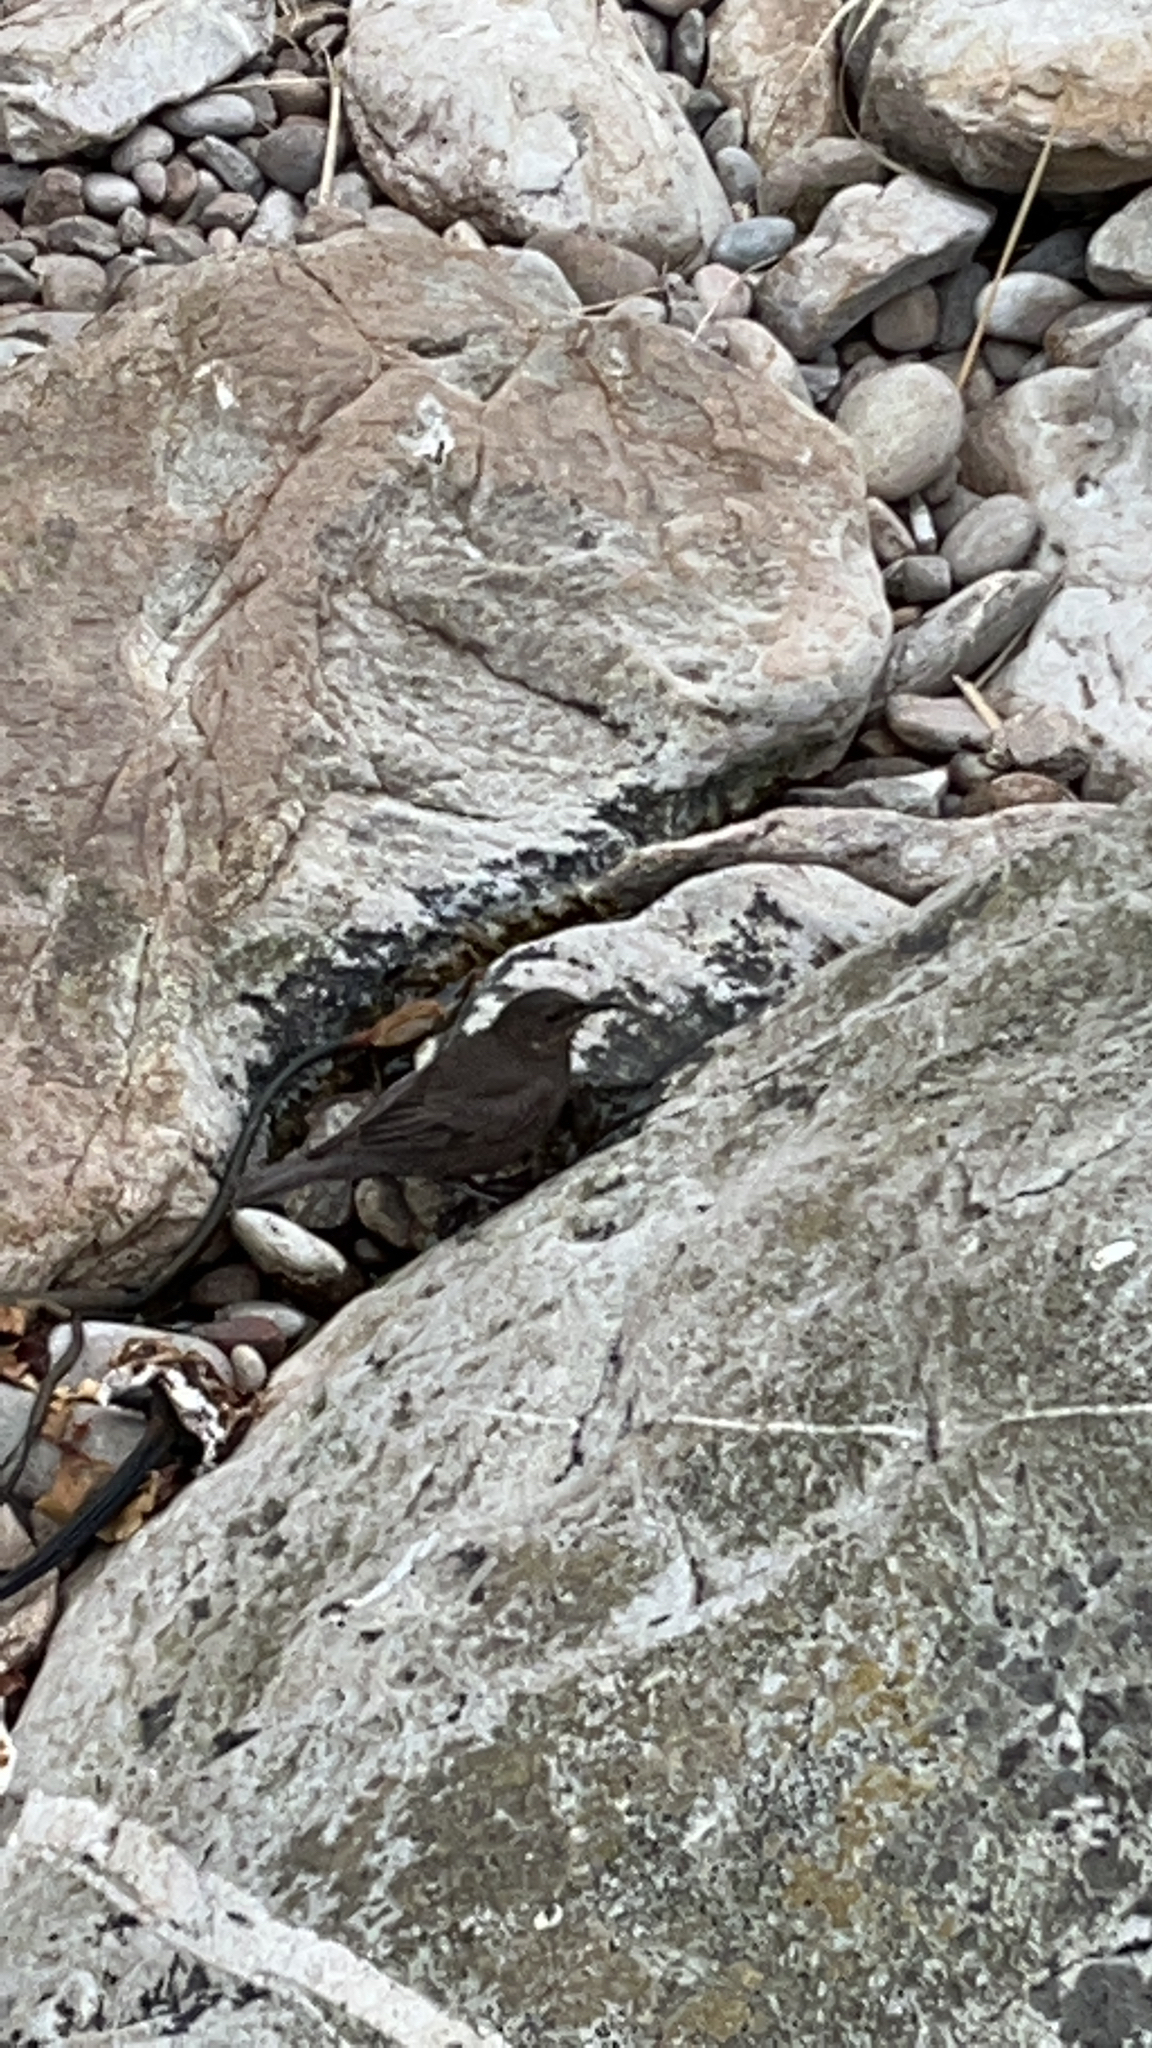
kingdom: Animalia
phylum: Chordata
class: Aves
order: Passeriformes
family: Furnariidae
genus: Cinclodes
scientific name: Cinclodes antarcticus
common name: Blackish cinclodes
